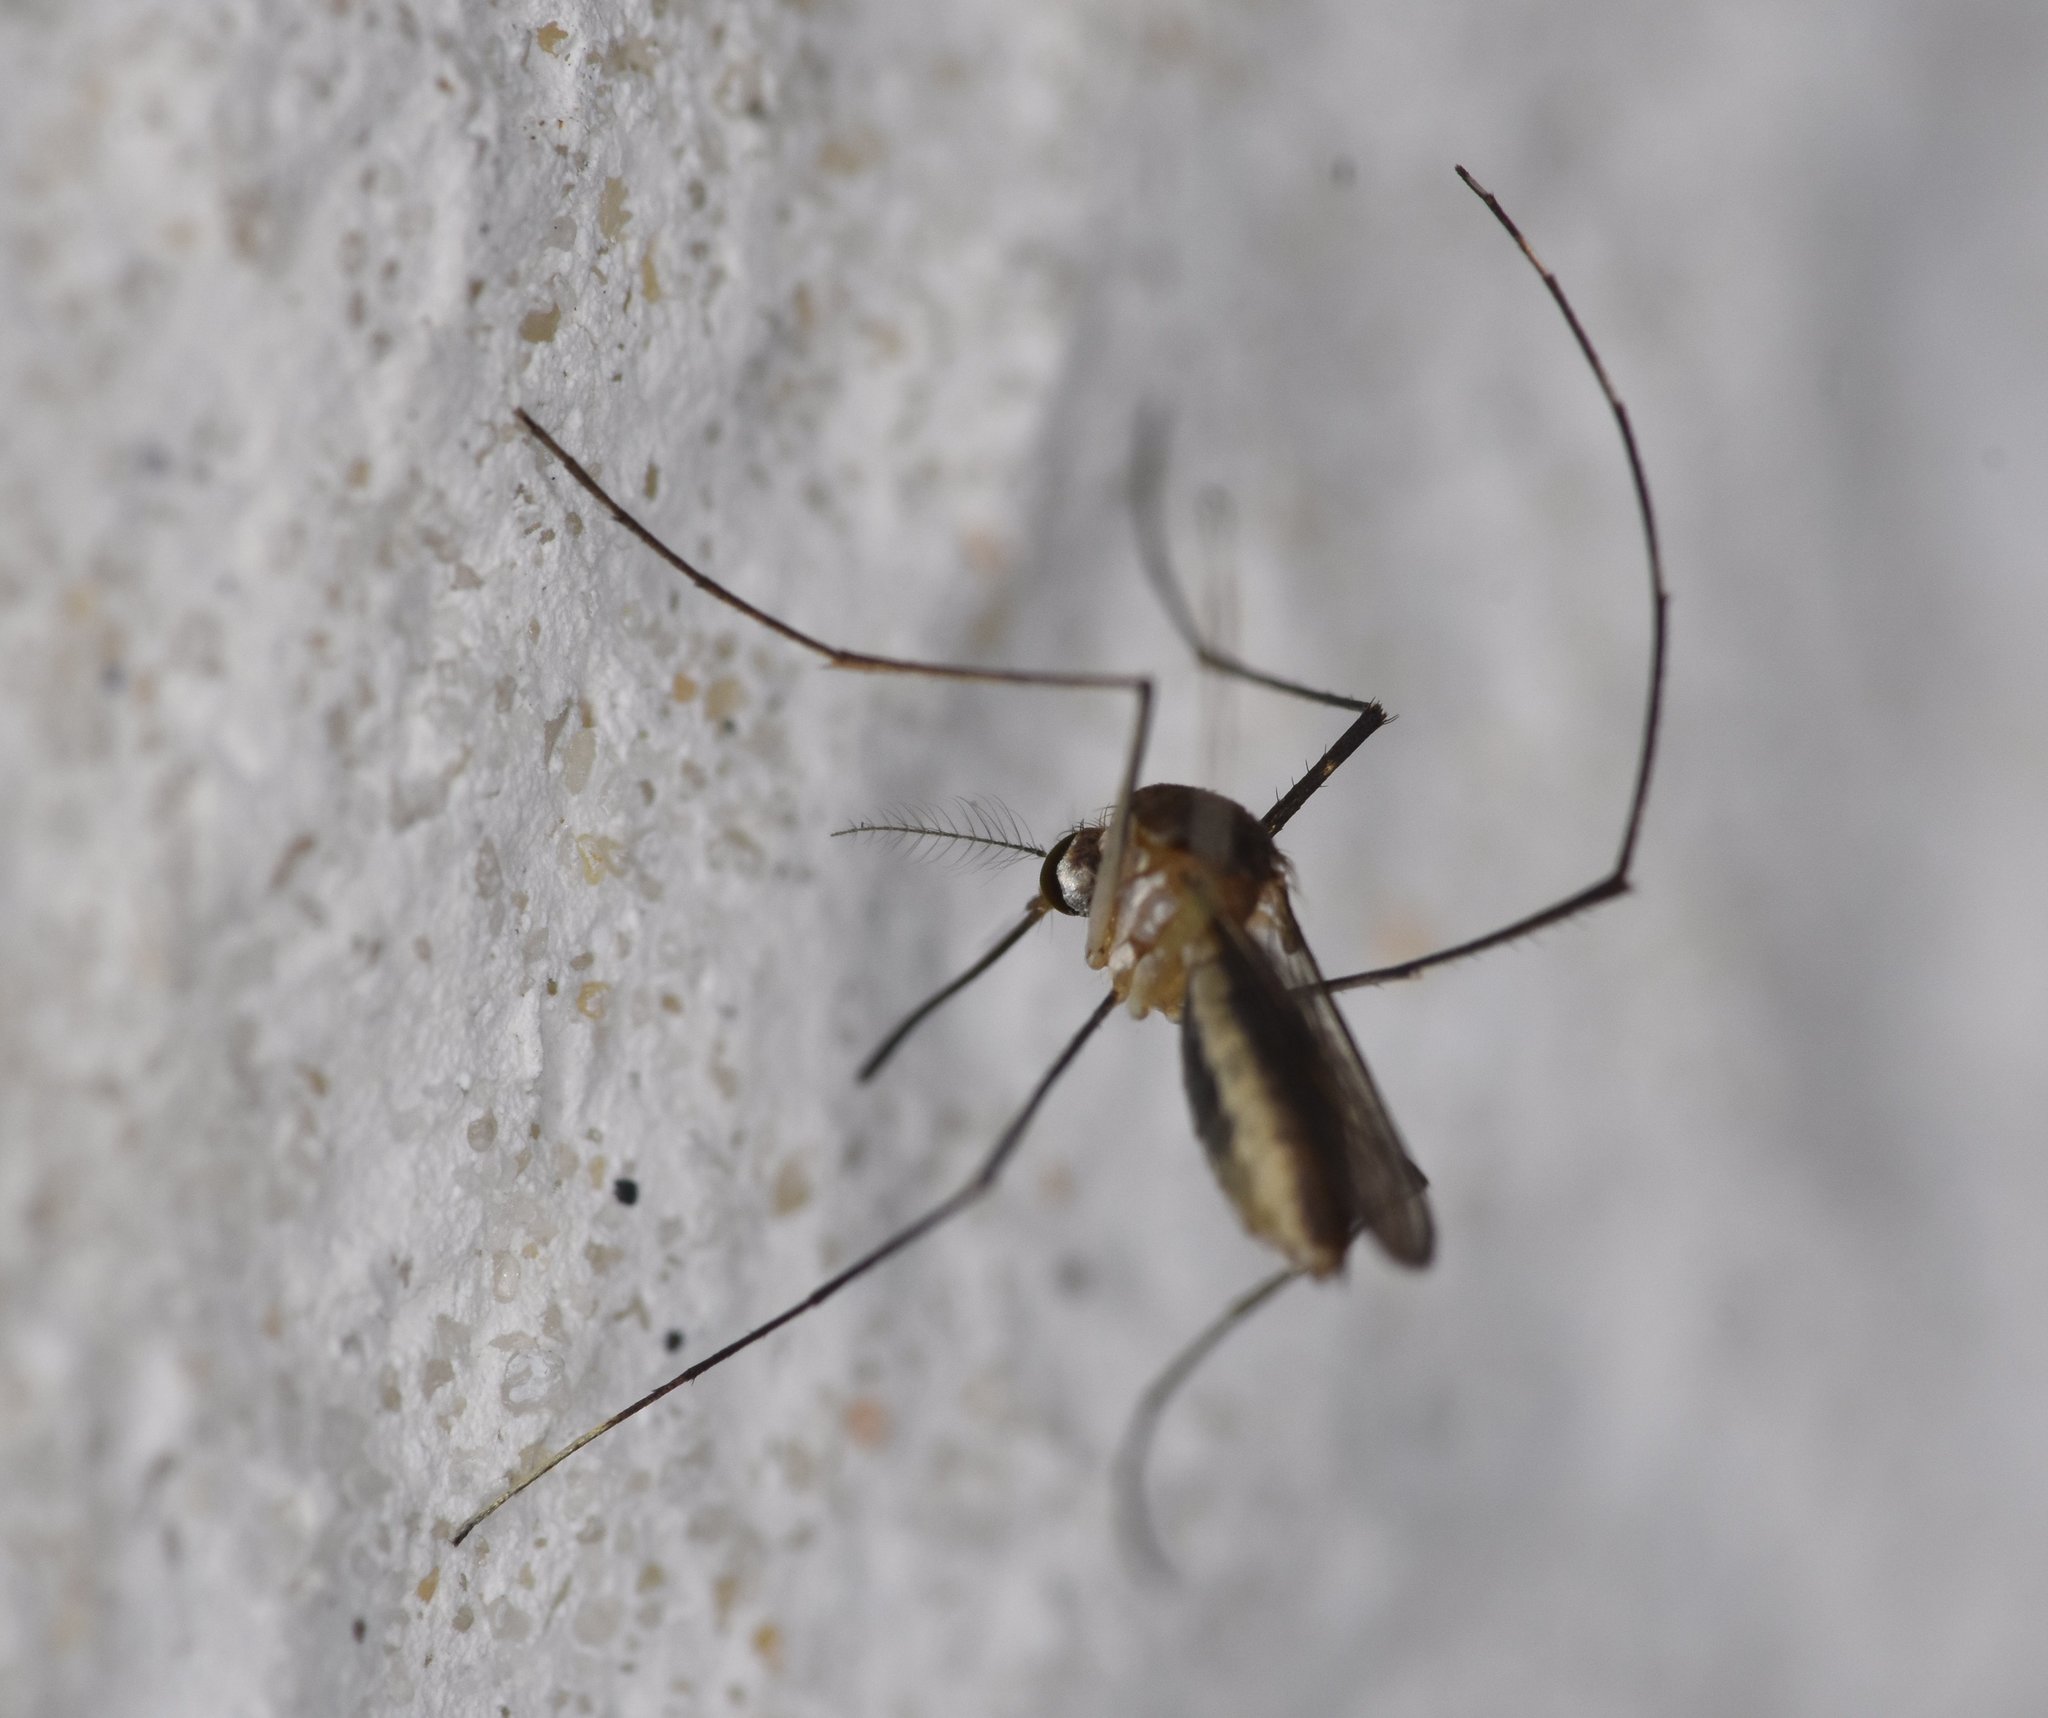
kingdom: Animalia
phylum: Arthropoda
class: Insecta
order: Diptera
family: Culicidae
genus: Wyeomyia
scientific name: Wyeomyia mitchellii
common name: Bromeliad mosquito
